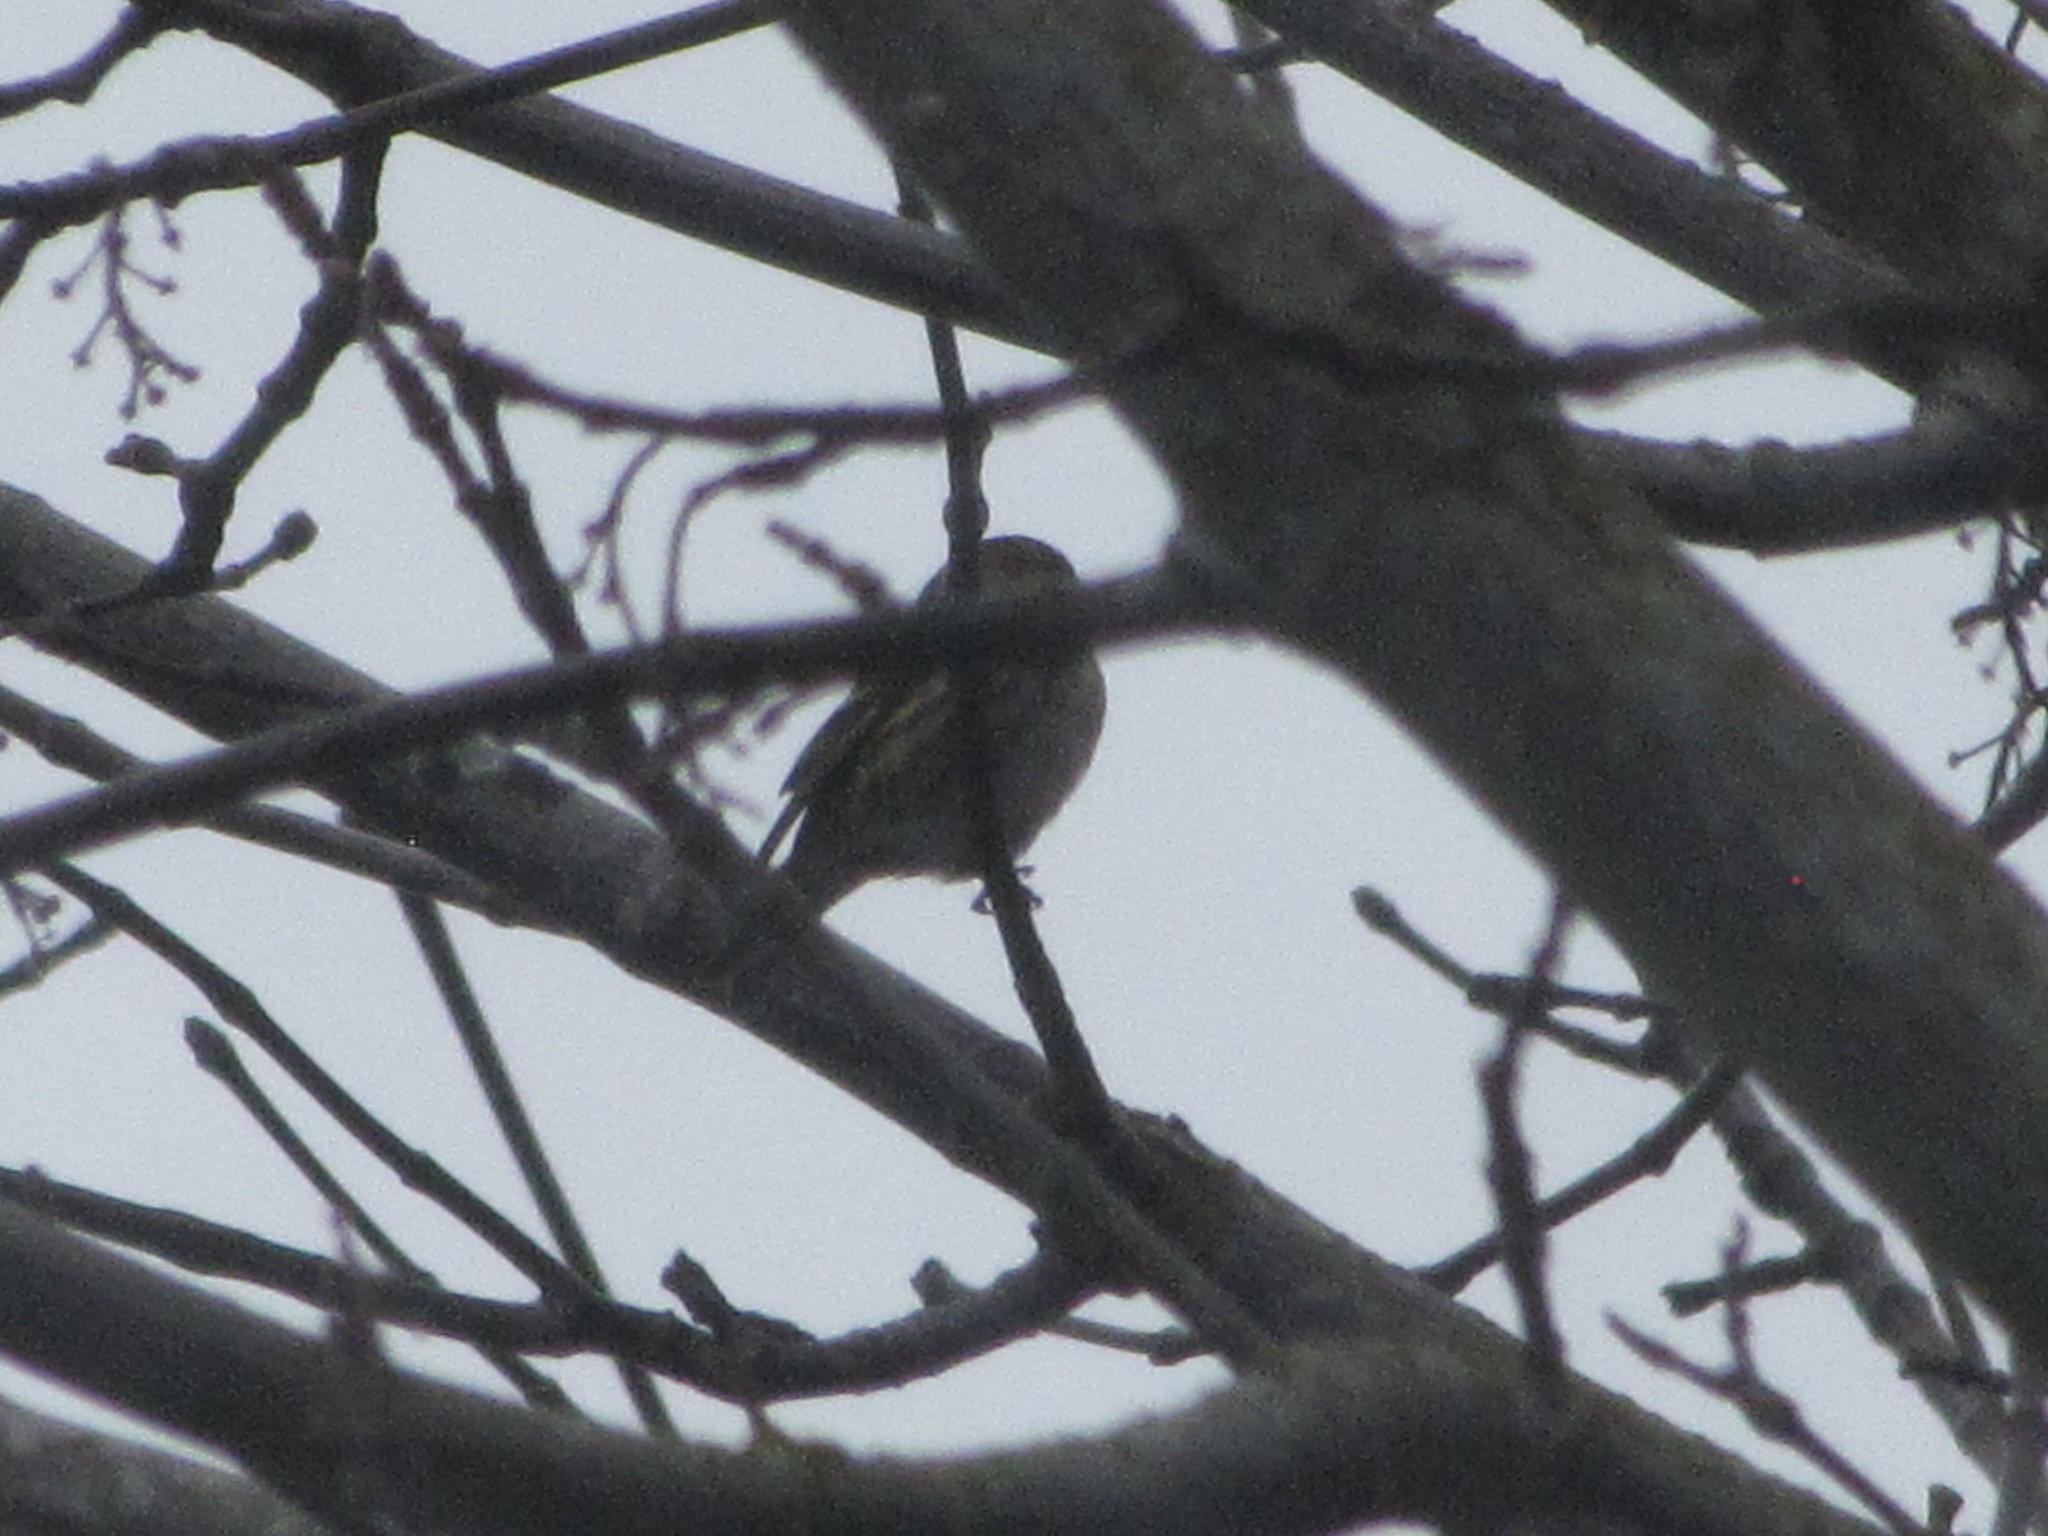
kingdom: Animalia
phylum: Chordata
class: Aves
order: Passeriformes
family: Fringillidae
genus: Spinus
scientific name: Spinus pinus
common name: Pine siskin
